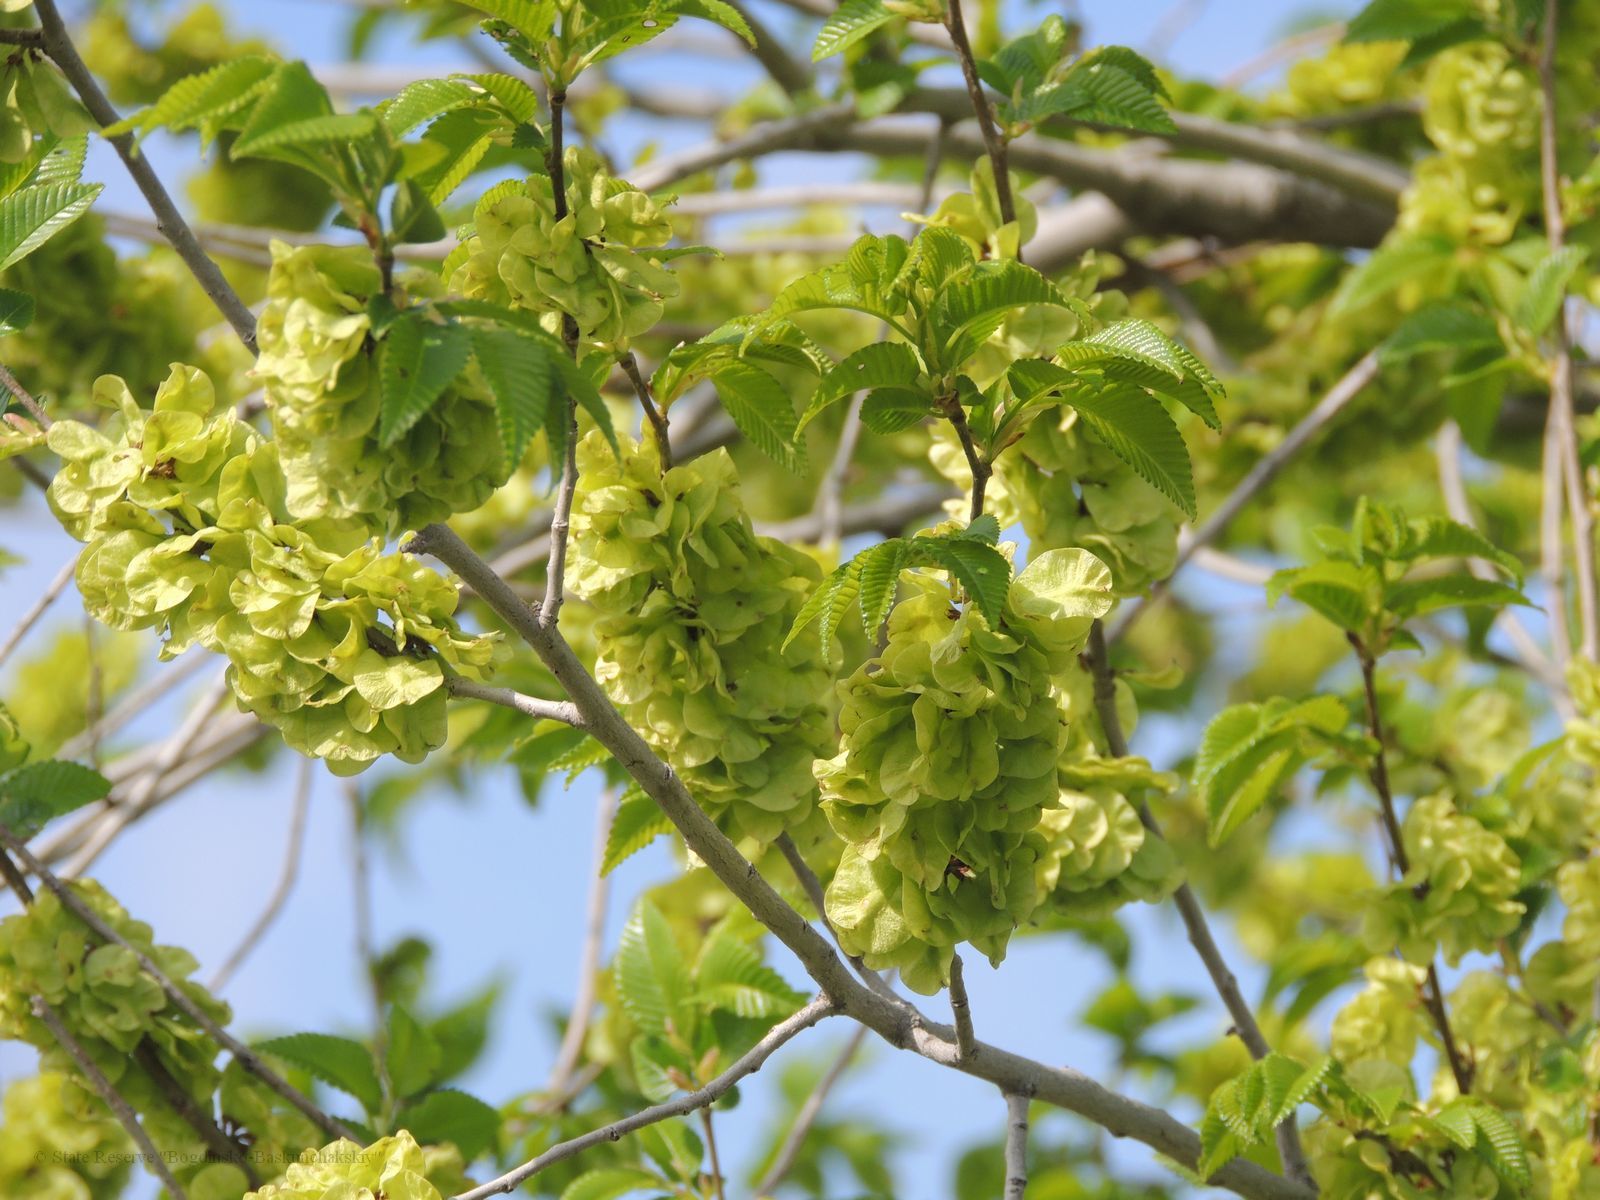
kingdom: Plantae
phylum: Tracheophyta
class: Magnoliopsida
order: Rosales
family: Ulmaceae
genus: Ulmus
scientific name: Ulmus pumila
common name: Siberian elm
